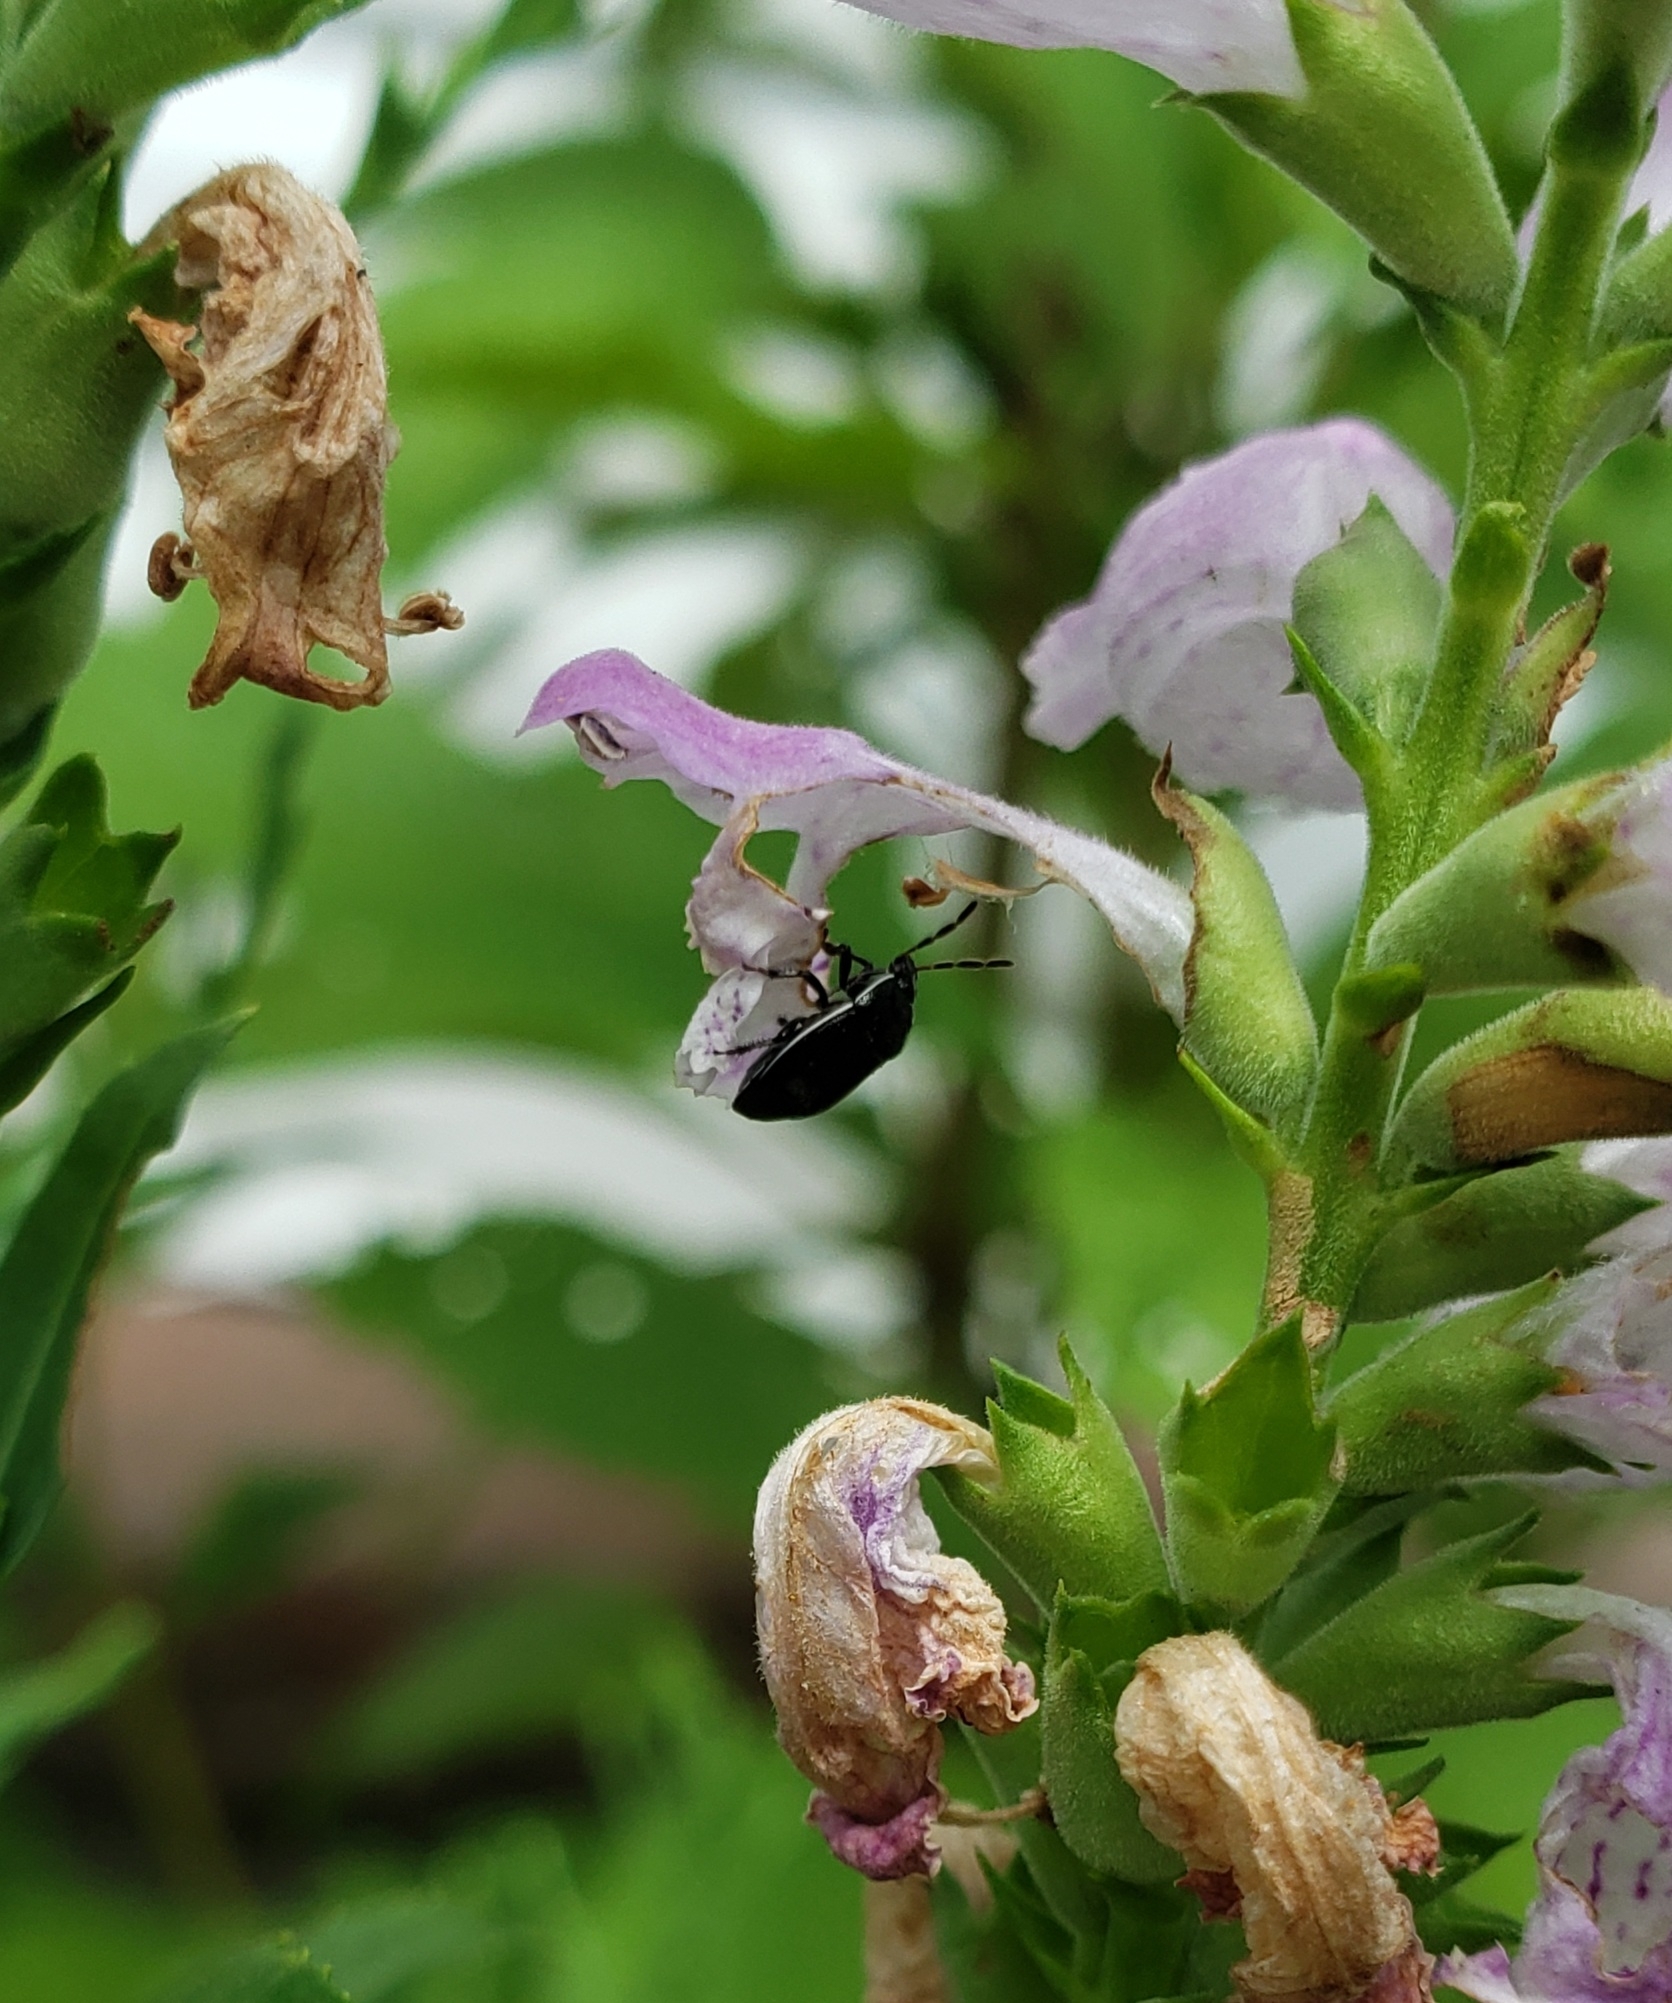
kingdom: Animalia
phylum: Arthropoda
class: Insecta
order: Hemiptera
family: Cydnidae
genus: Sehirus
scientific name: Sehirus cinctus
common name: White-margined burrower bug
